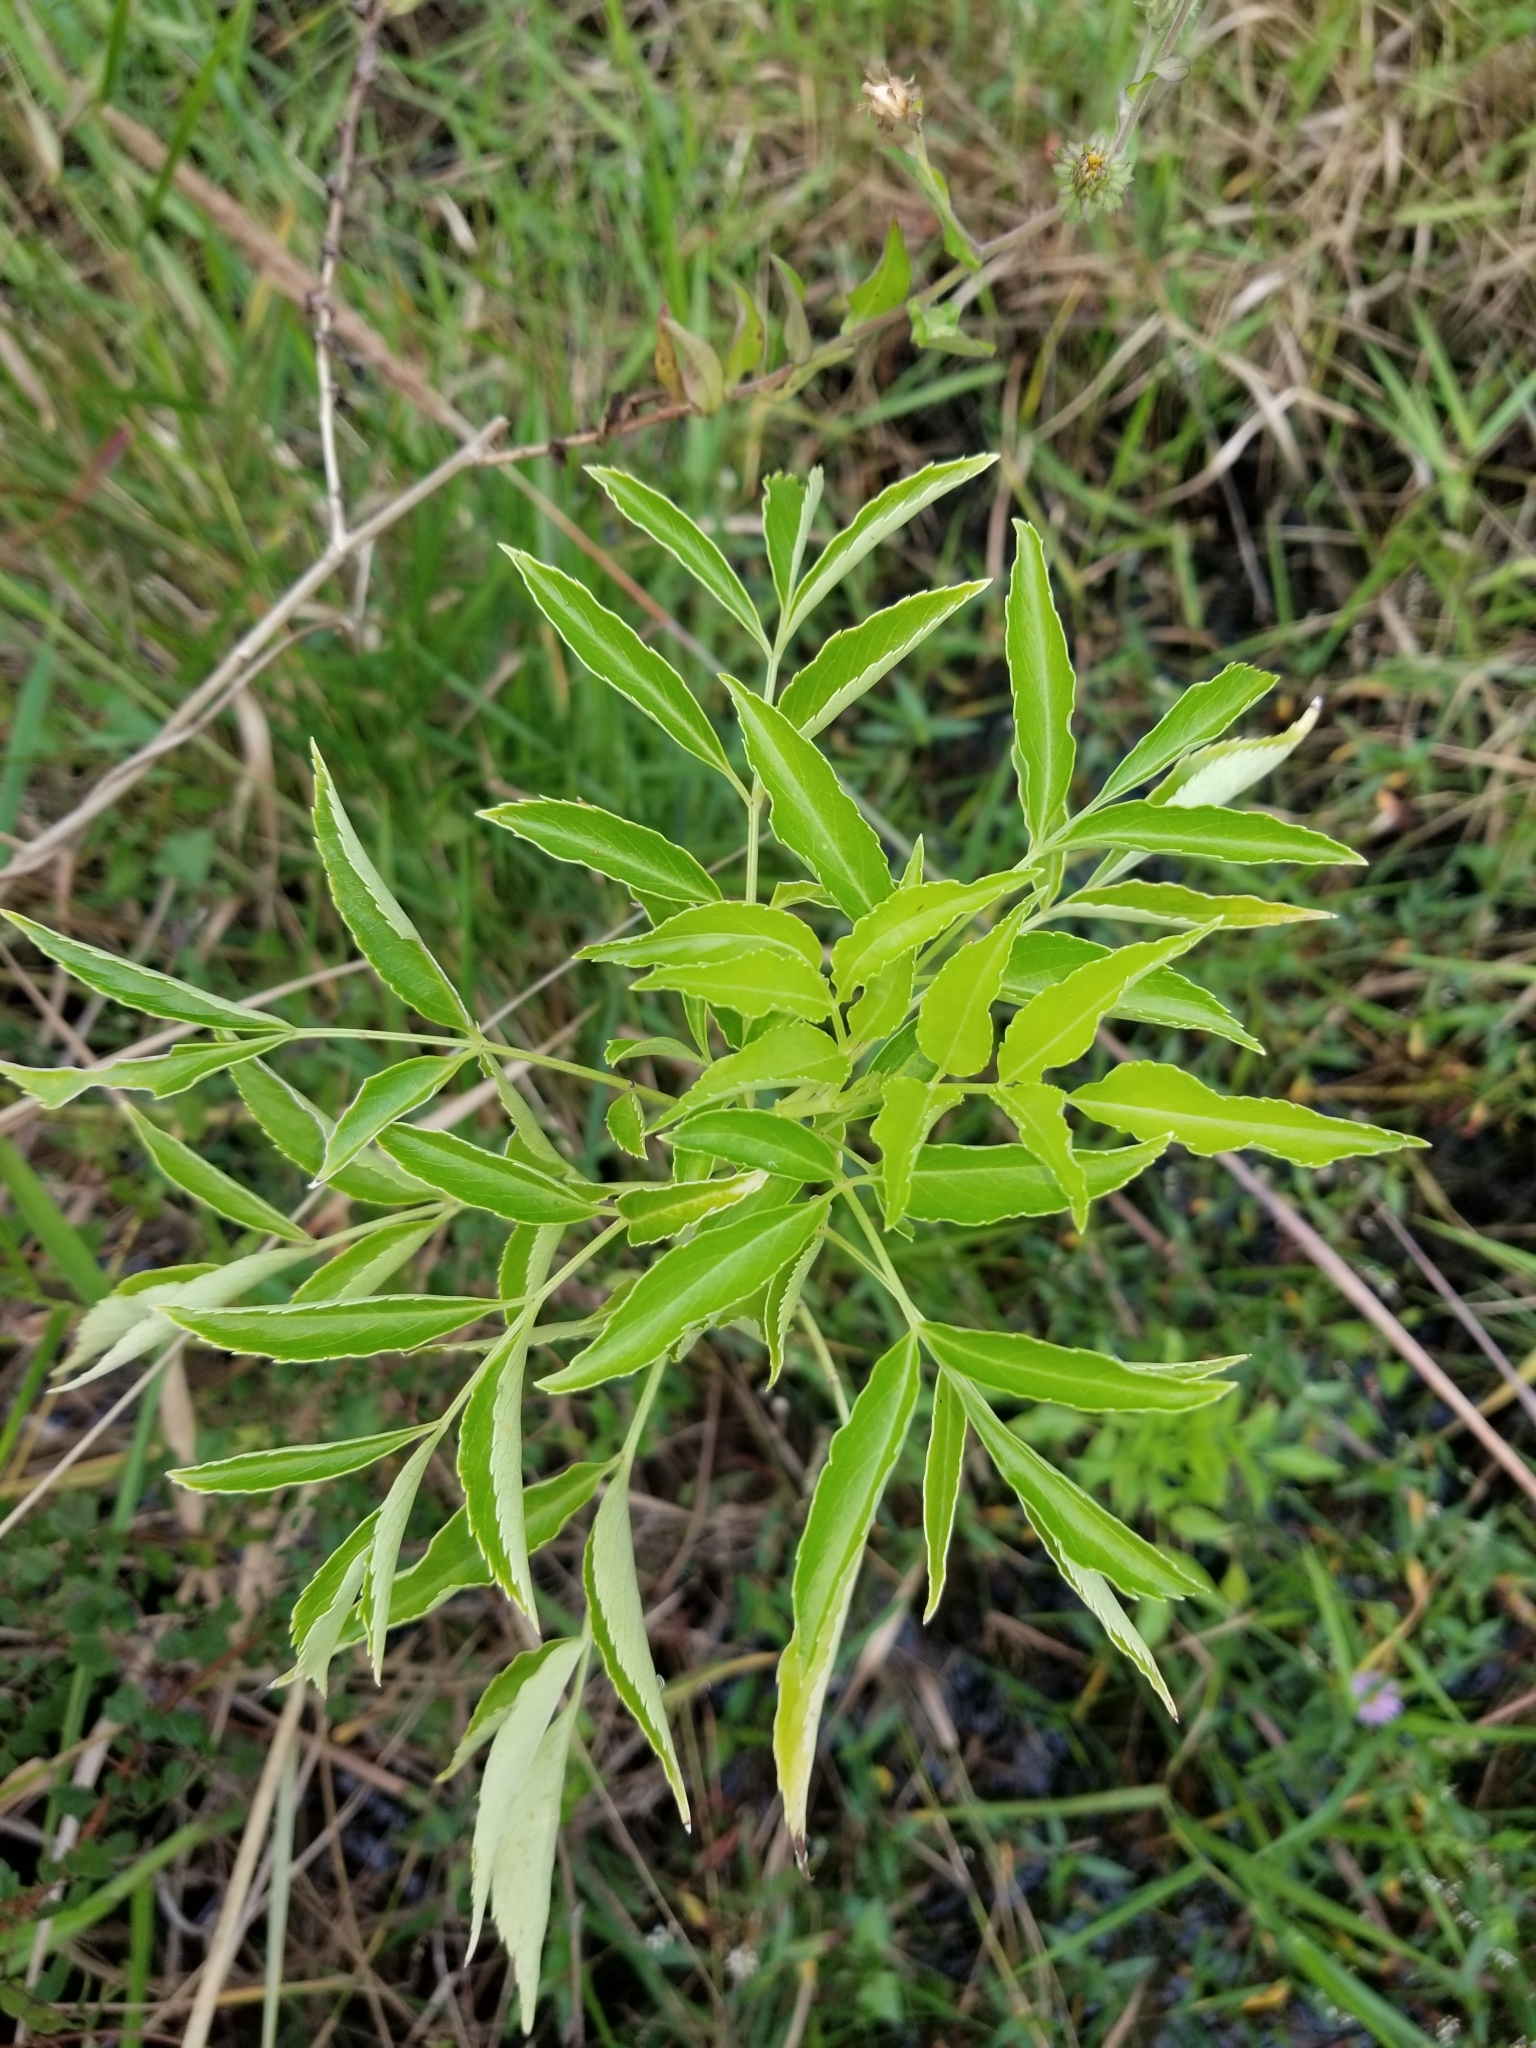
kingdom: Plantae
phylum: Tracheophyta
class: Magnoliopsida
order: Dipsacales
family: Viburnaceae
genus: Sambucus
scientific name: Sambucus canadensis
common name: American elder
